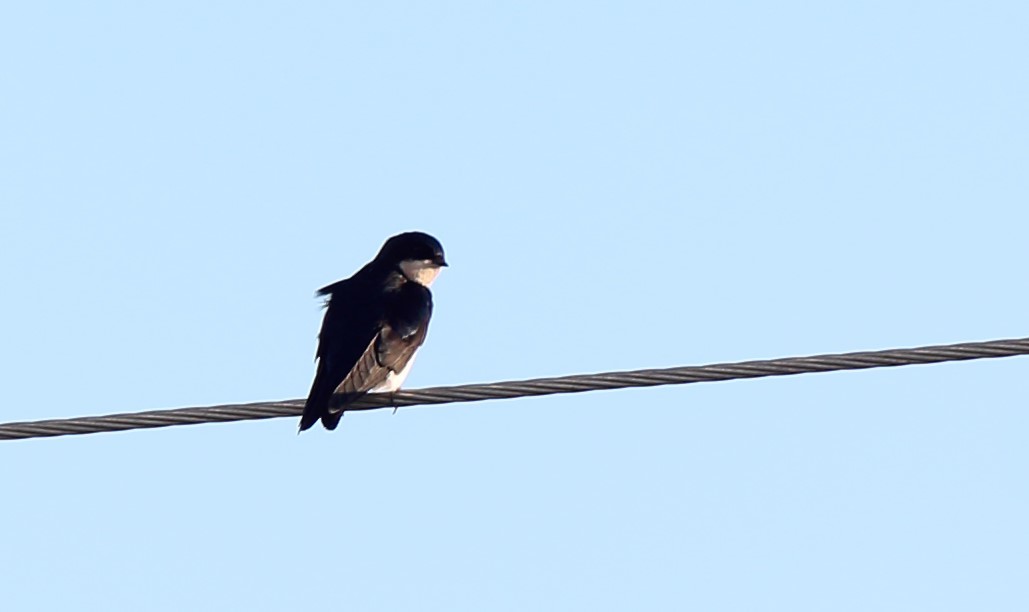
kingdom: Animalia
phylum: Chordata
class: Aves
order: Passeriformes
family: Hirundinidae
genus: Notiochelidon
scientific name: Notiochelidon cyanoleuca
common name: Blue-and-white swallow
